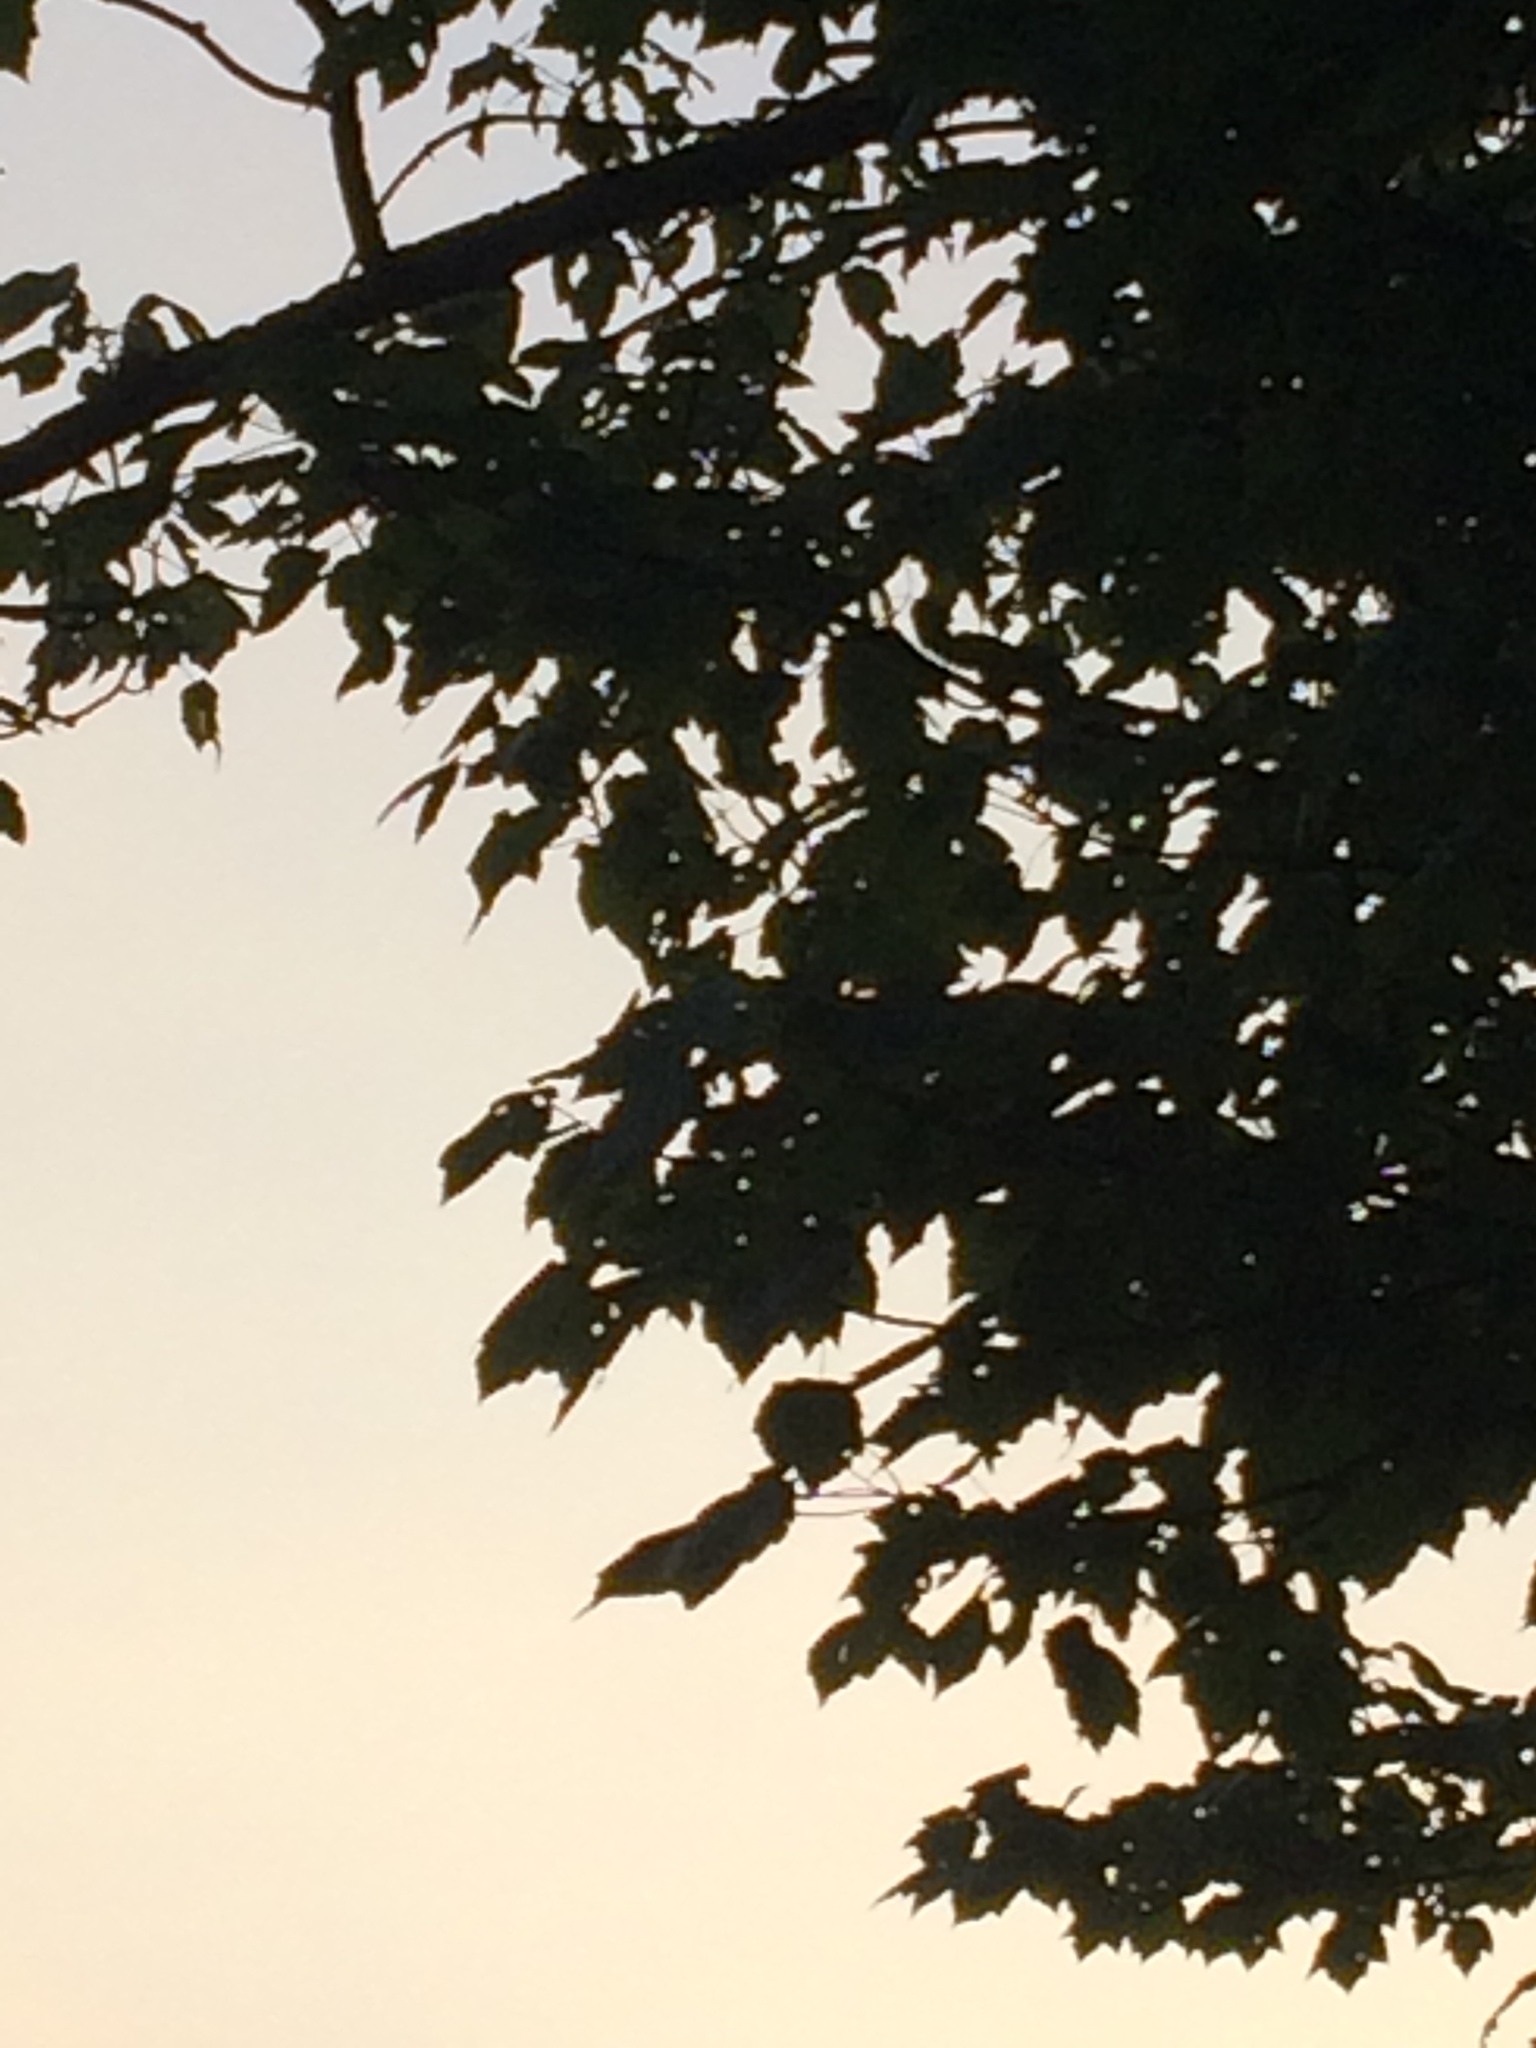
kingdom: Plantae
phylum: Tracheophyta
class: Magnoliopsida
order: Sapindales
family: Sapindaceae
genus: Acer
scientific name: Acer rubrum
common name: Red maple
